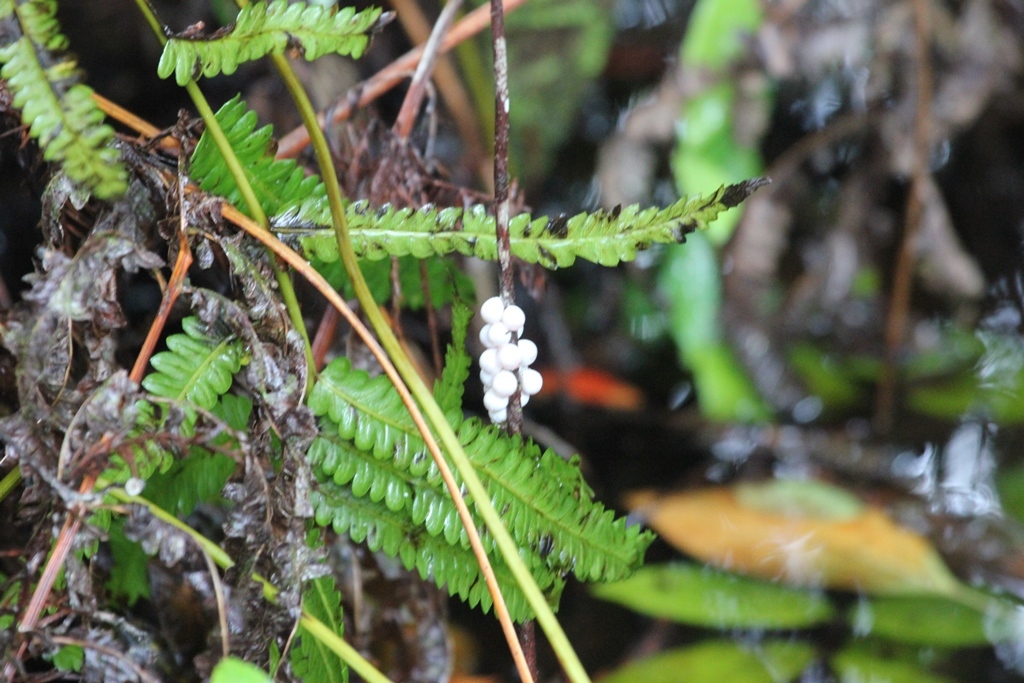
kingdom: Animalia
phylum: Mollusca
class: Gastropoda
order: Architaenioglossa
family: Ampullariidae
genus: Pomacea
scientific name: Pomacea paludosa
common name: Florida applesnail
